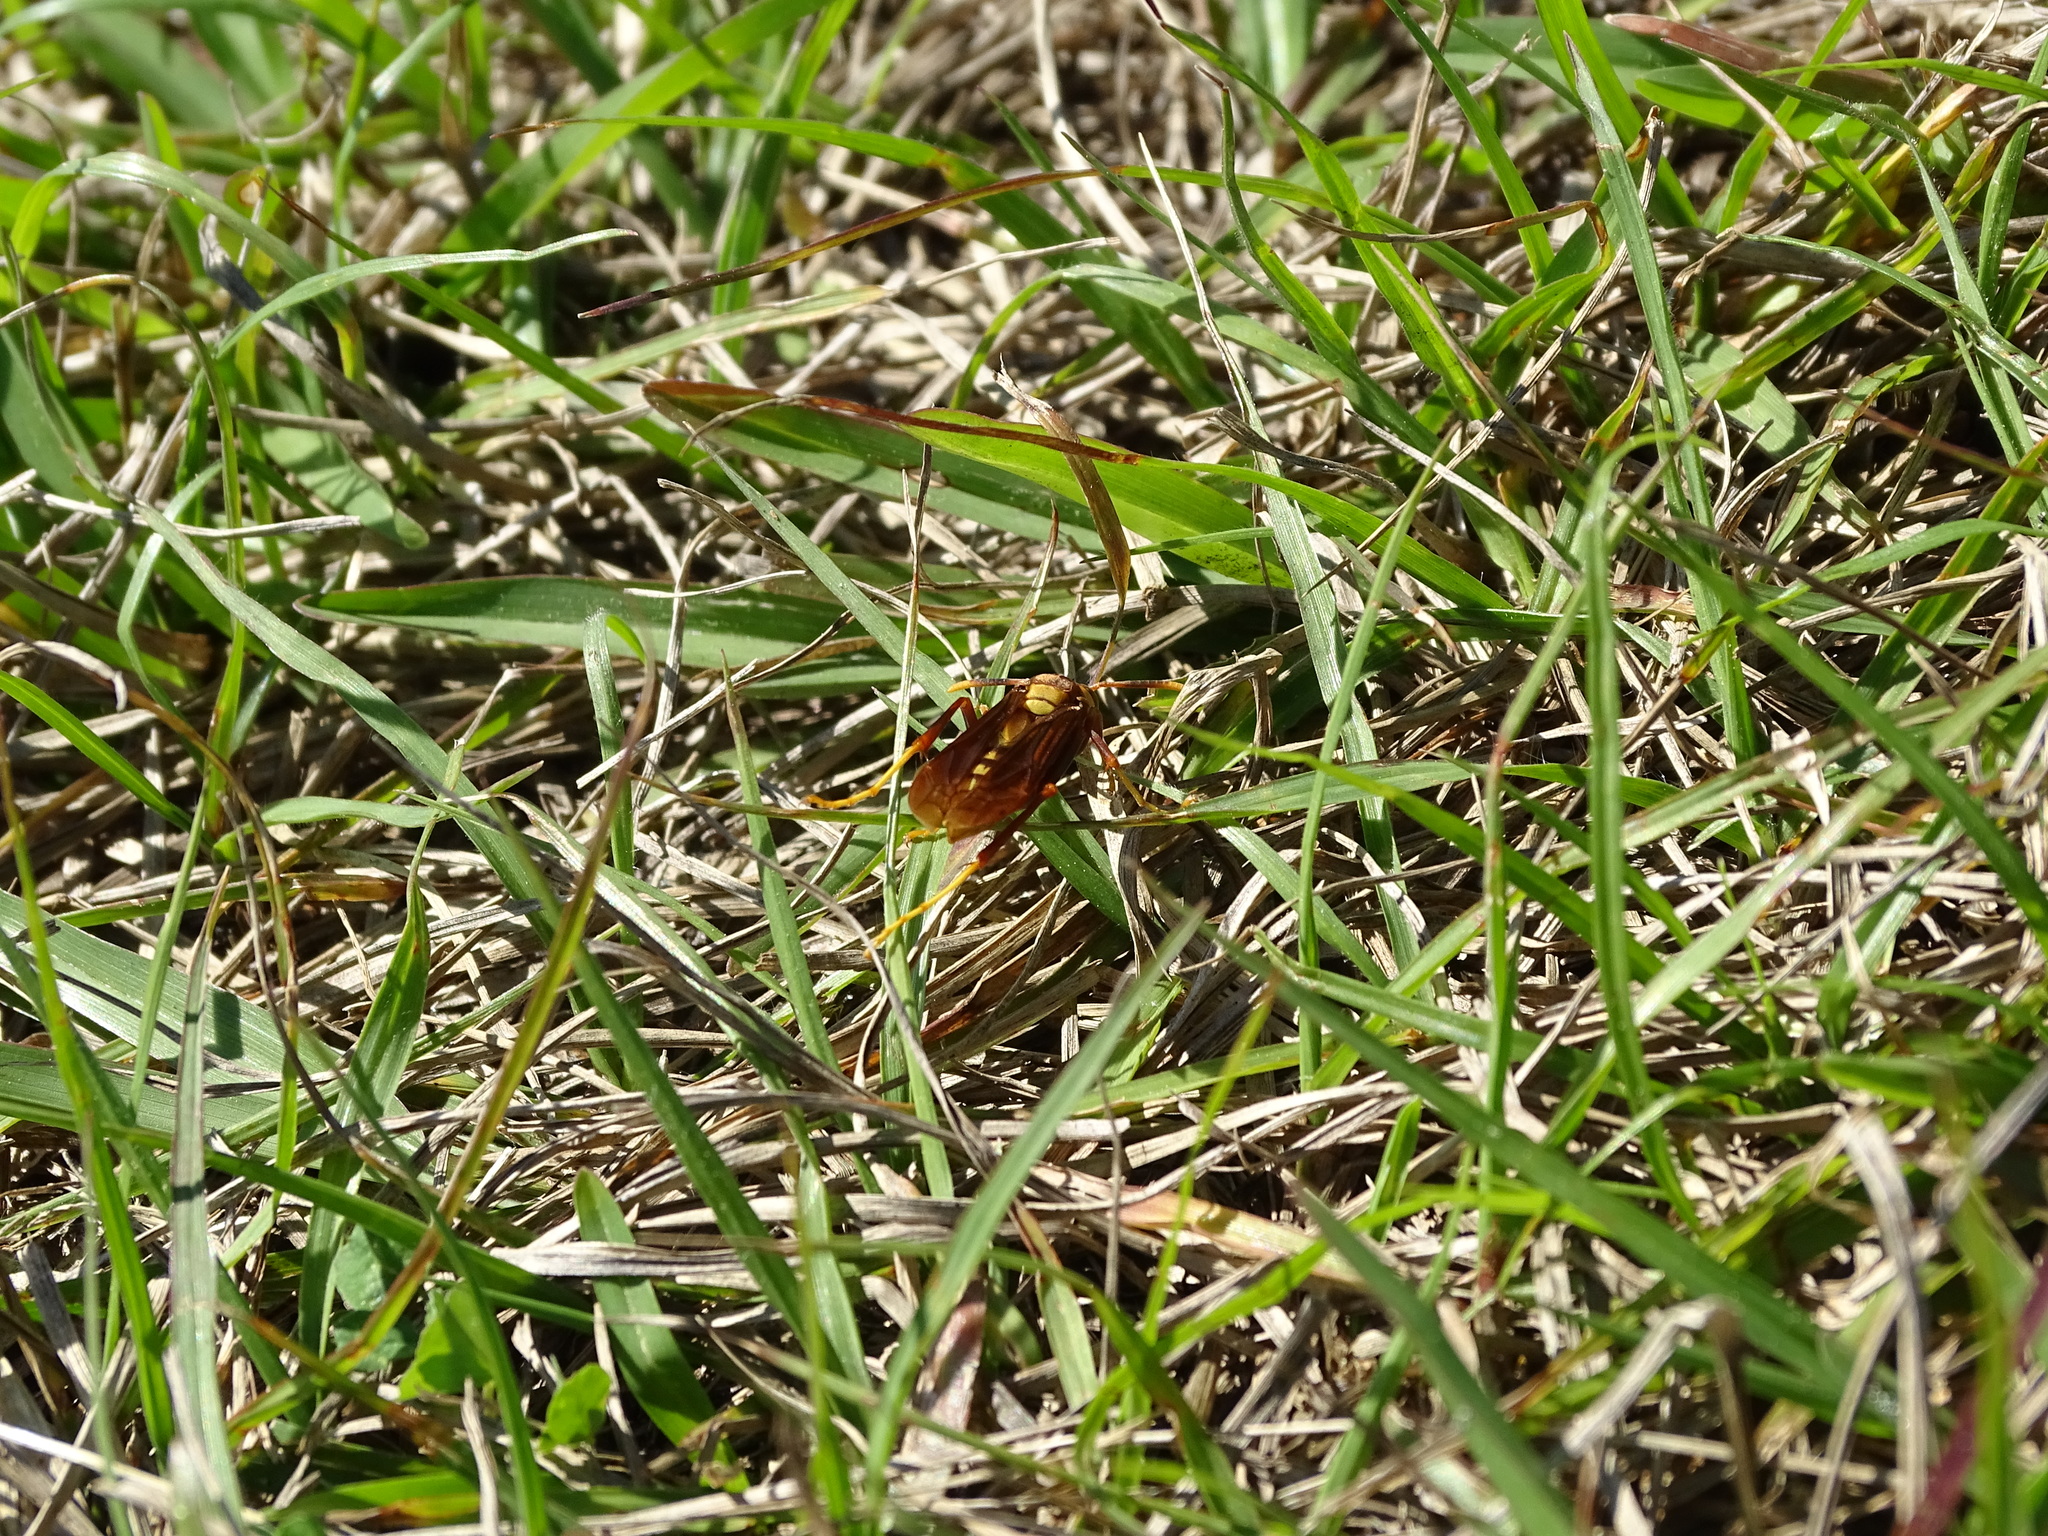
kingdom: Animalia
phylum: Arthropoda
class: Insecta
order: Hymenoptera
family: Eumenidae
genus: Polistes
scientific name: Polistes major
